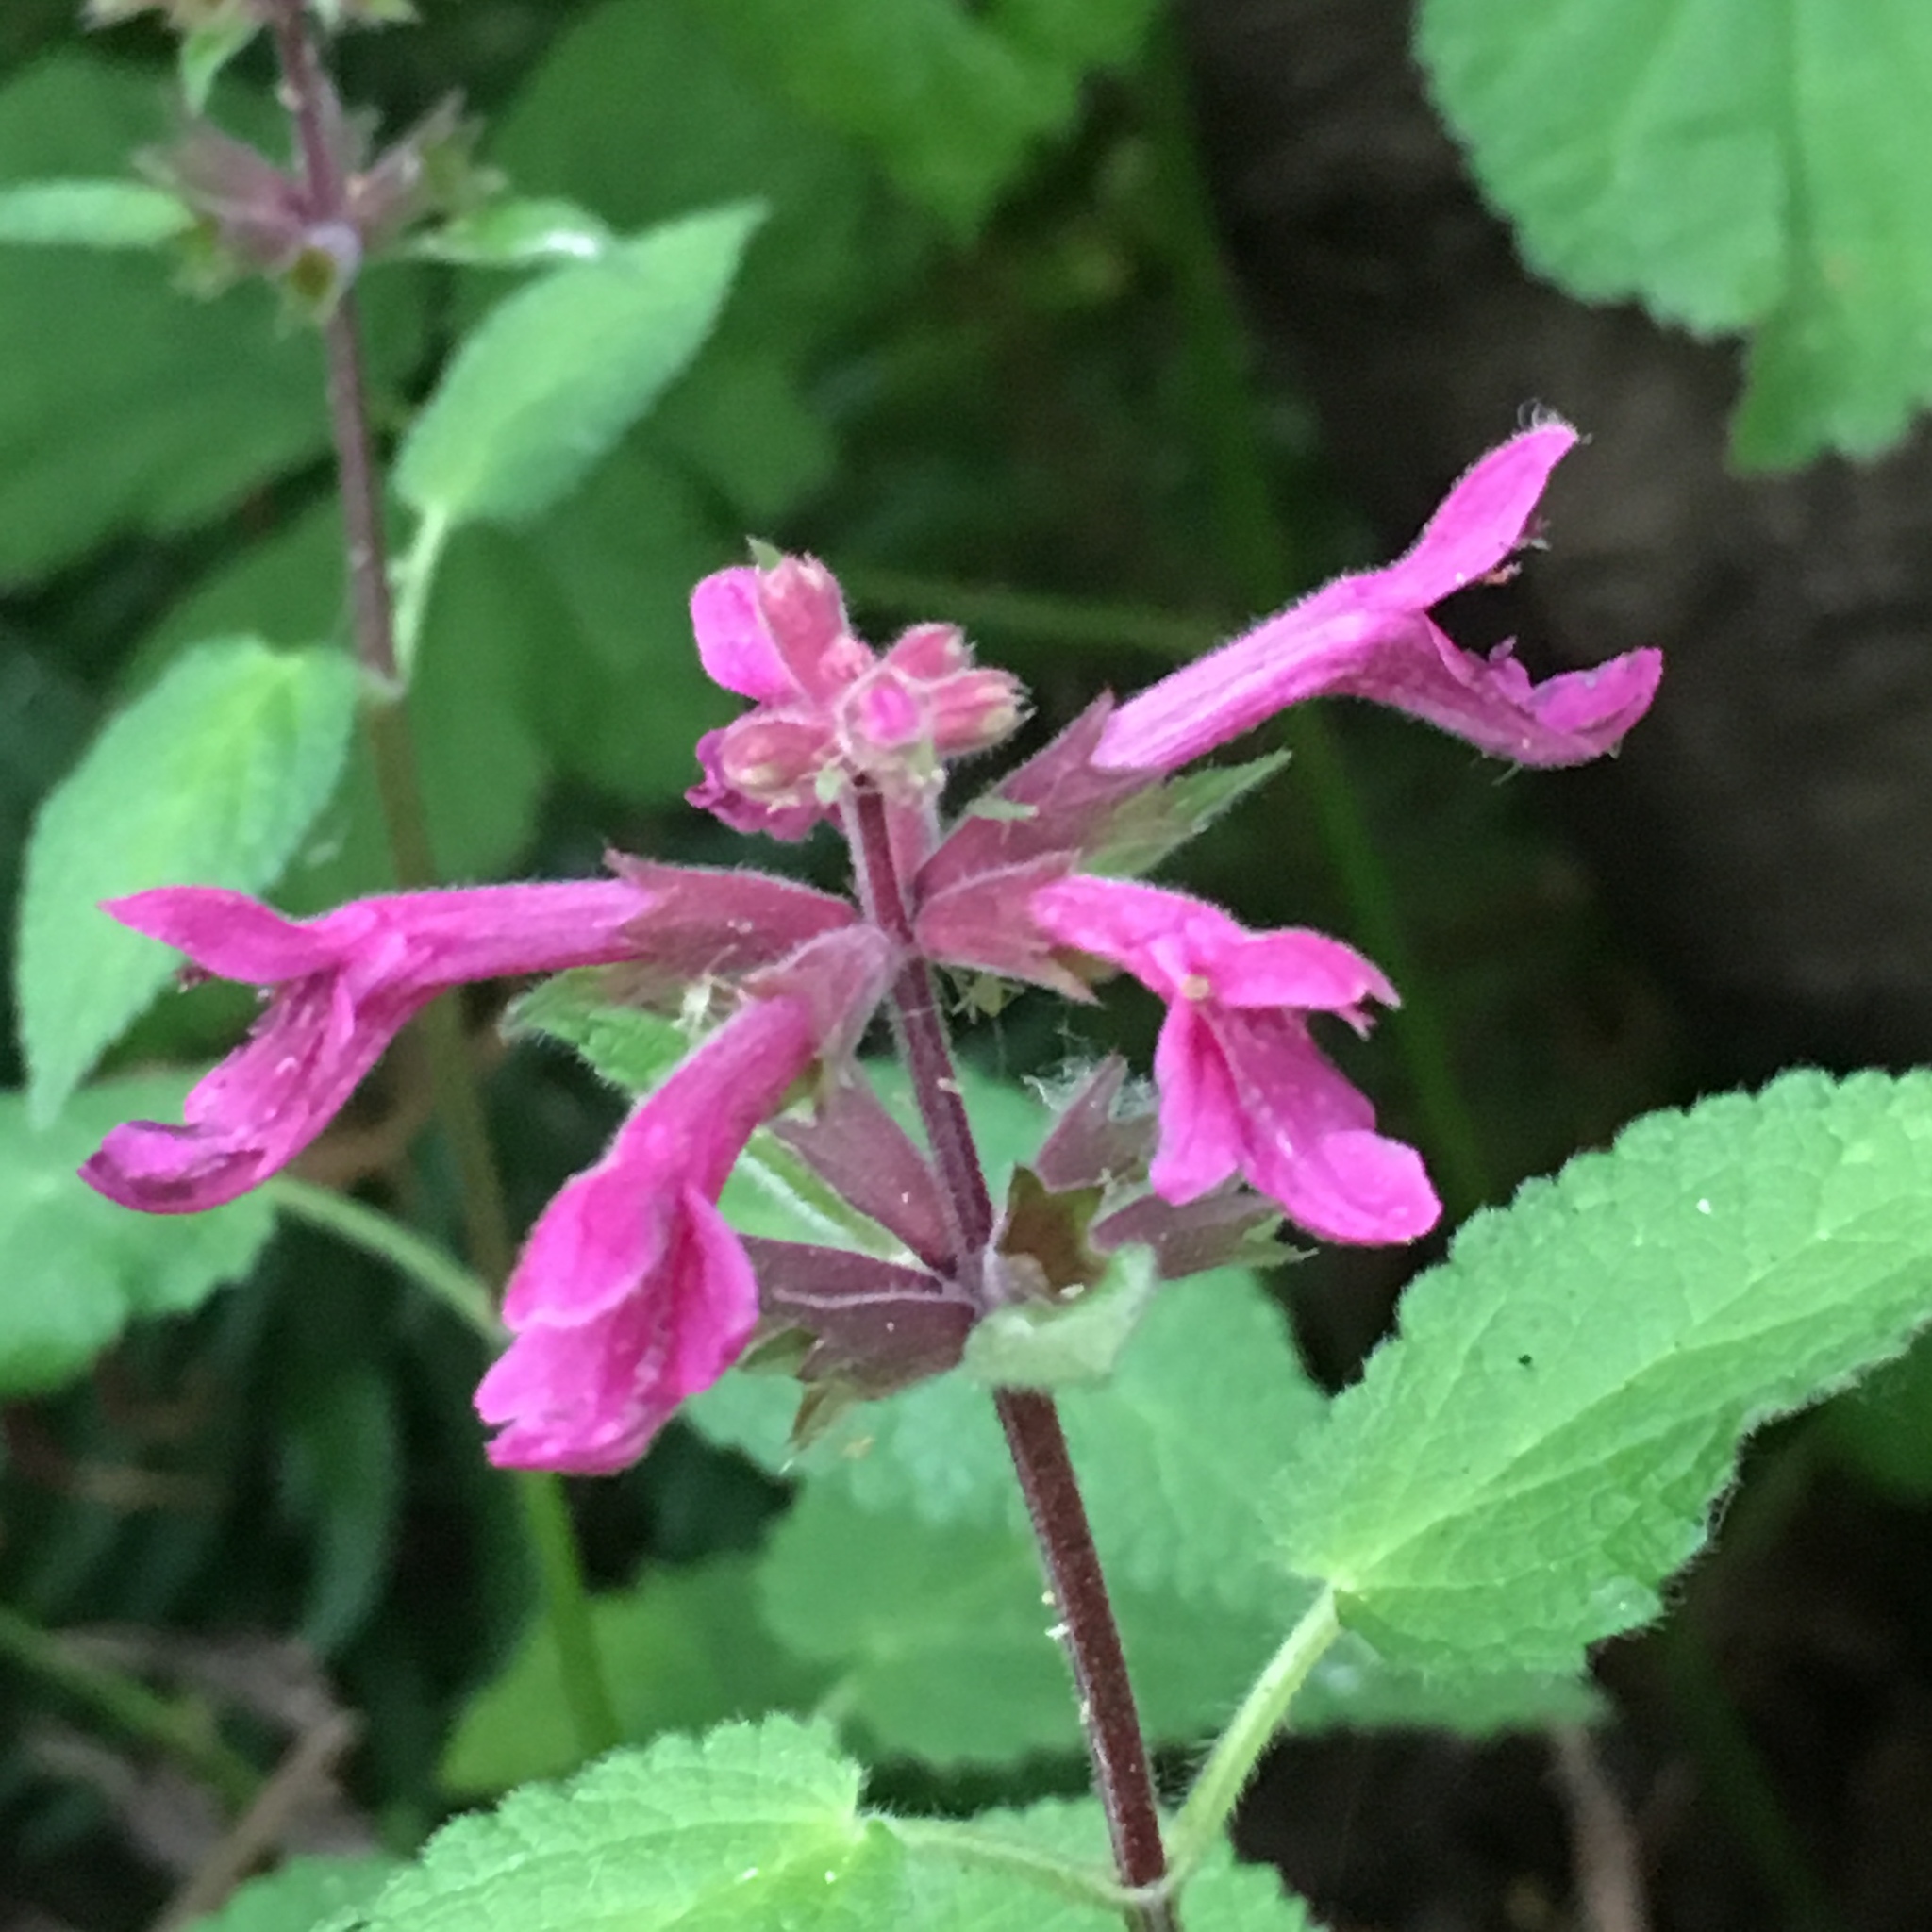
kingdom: Plantae
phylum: Tracheophyta
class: Magnoliopsida
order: Lamiales
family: Lamiaceae
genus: Stachys
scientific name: Stachys chamissonis
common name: Coastal hedge-nettle
